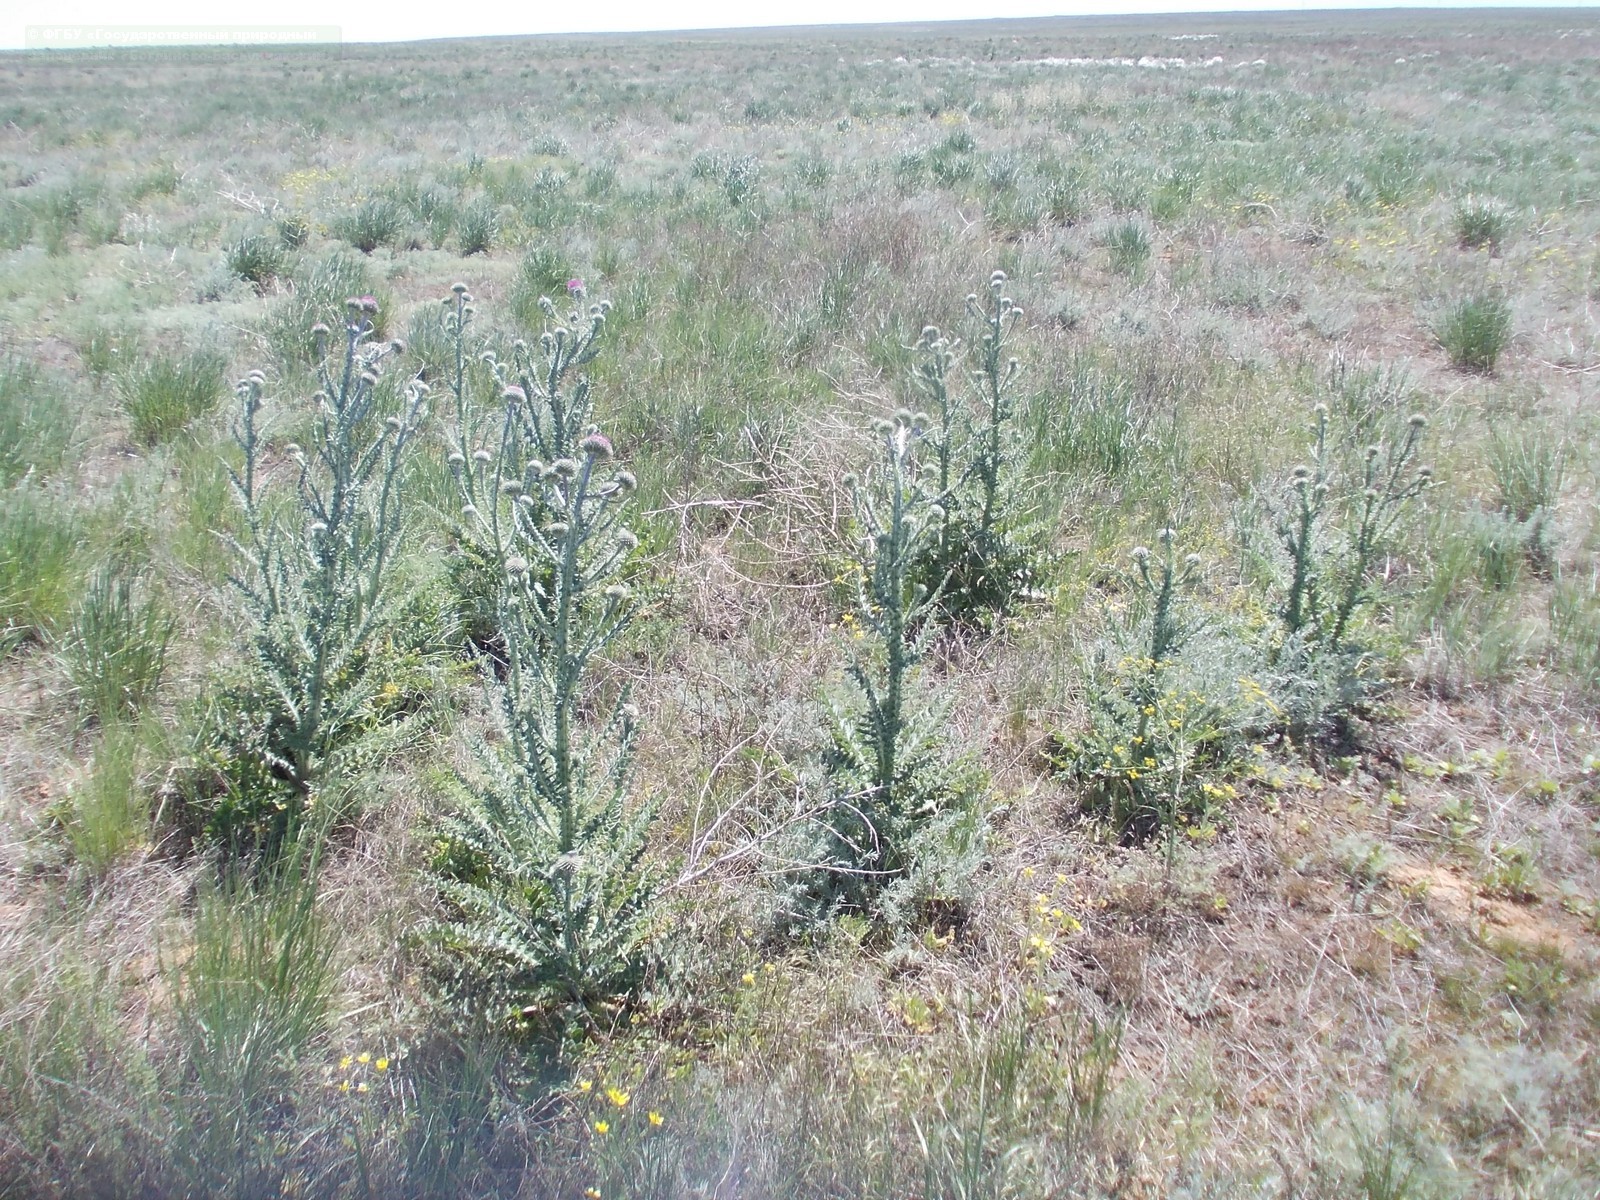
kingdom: Plantae
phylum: Tracheophyta
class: Magnoliopsida
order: Asterales
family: Asteraceae
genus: Carduus
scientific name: Carduus uncinatus
